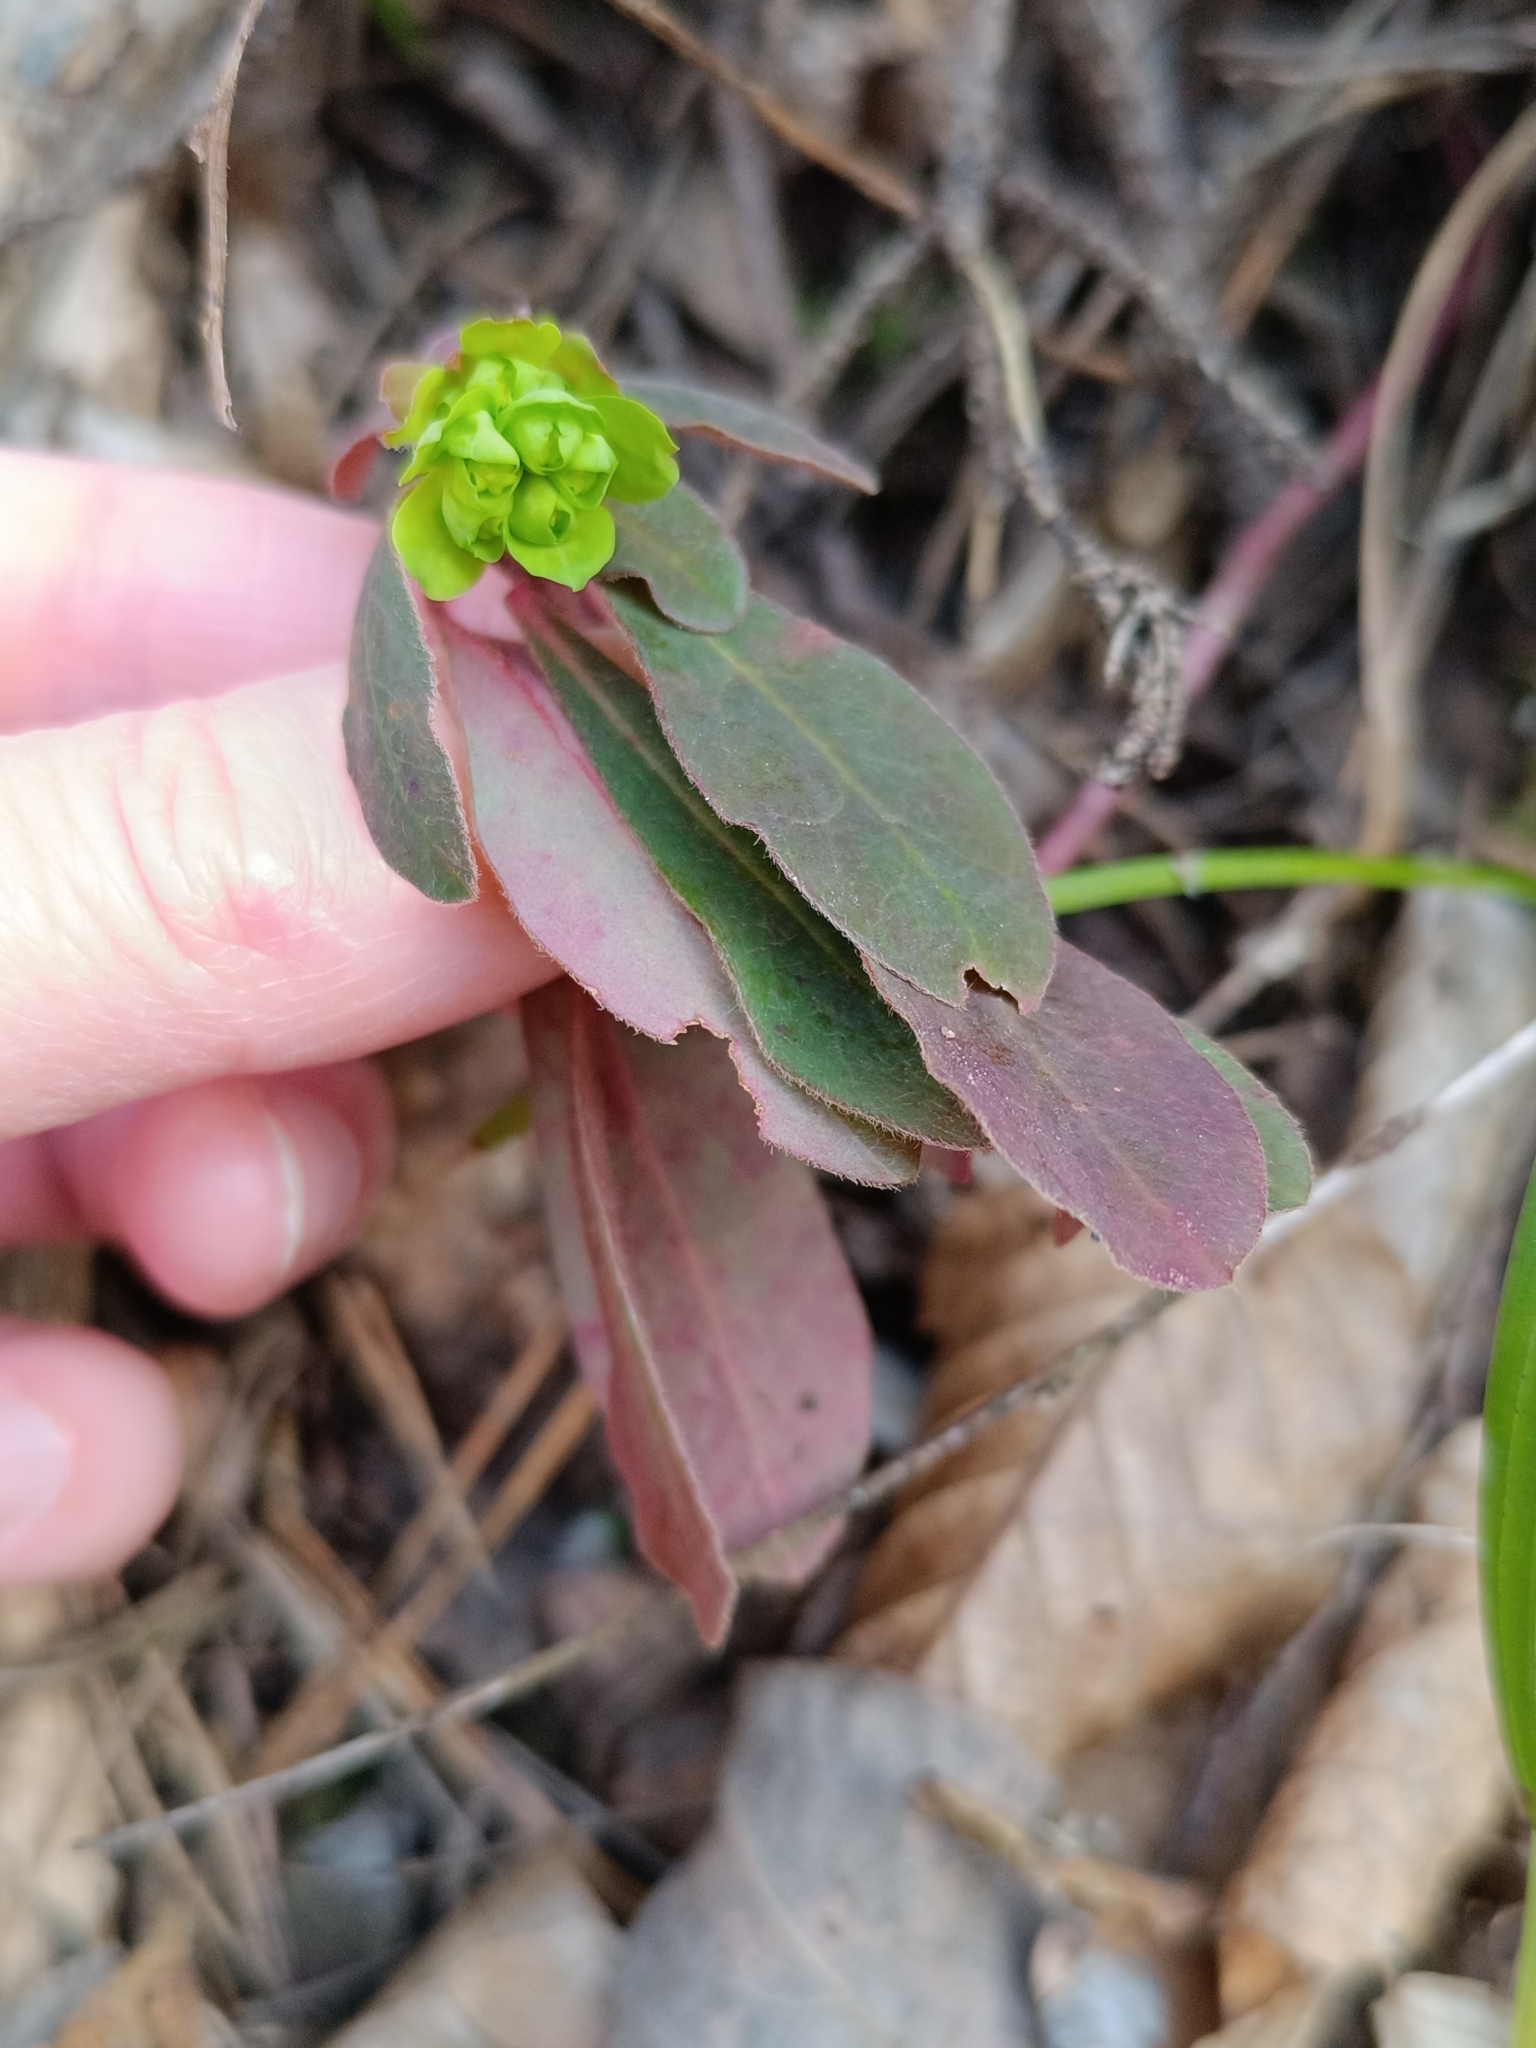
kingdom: Plantae
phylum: Tracheophyta
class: Magnoliopsida
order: Malpighiales
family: Euphorbiaceae
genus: Euphorbia
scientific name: Euphorbia amygdaloides
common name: Wood spurge
